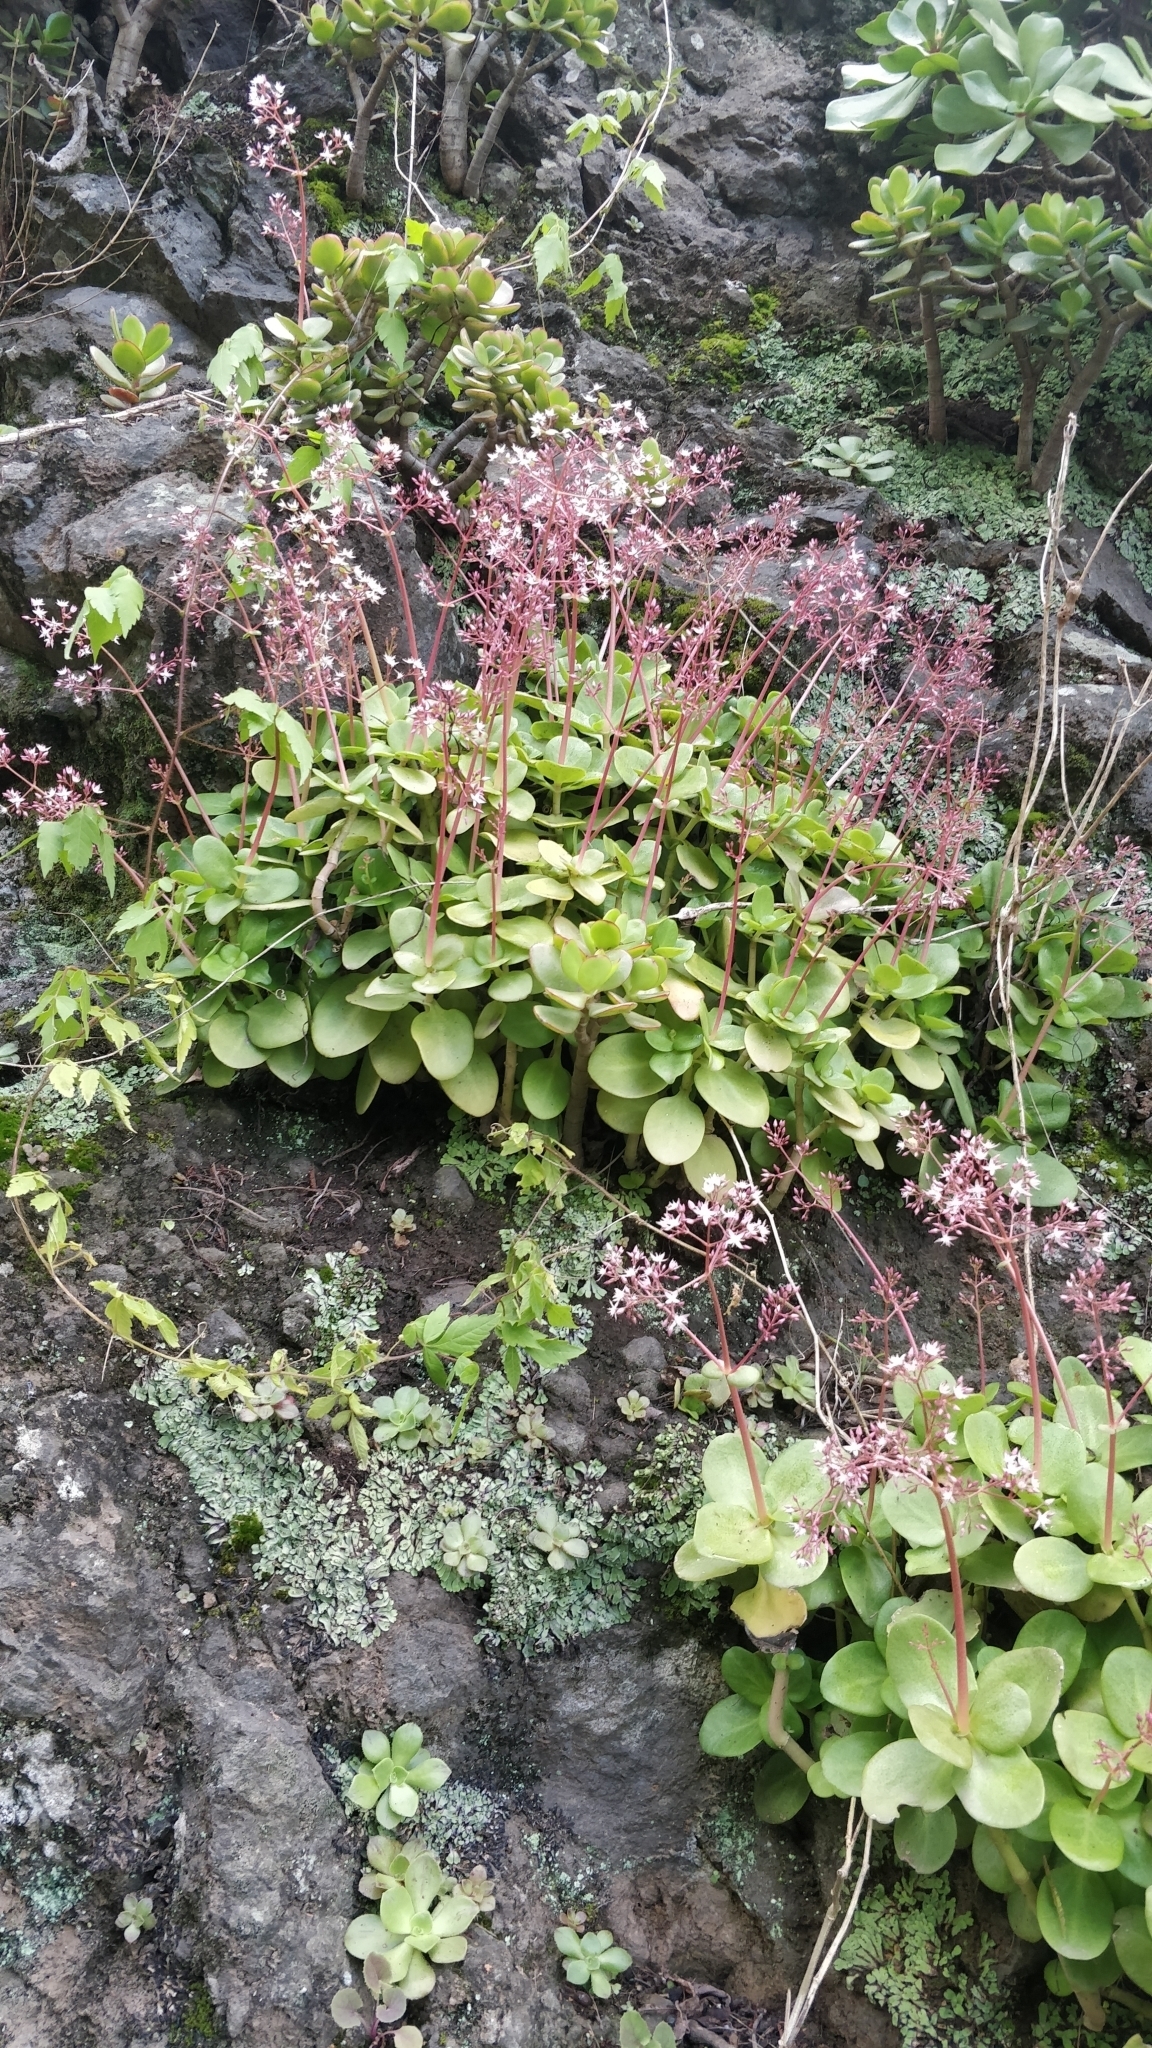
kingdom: Plantae
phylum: Tracheophyta
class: Magnoliopsida
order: Saxifragales
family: Crassulaceae
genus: Crassula
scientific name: Crassula multicava
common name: Cape province pygmyweed
